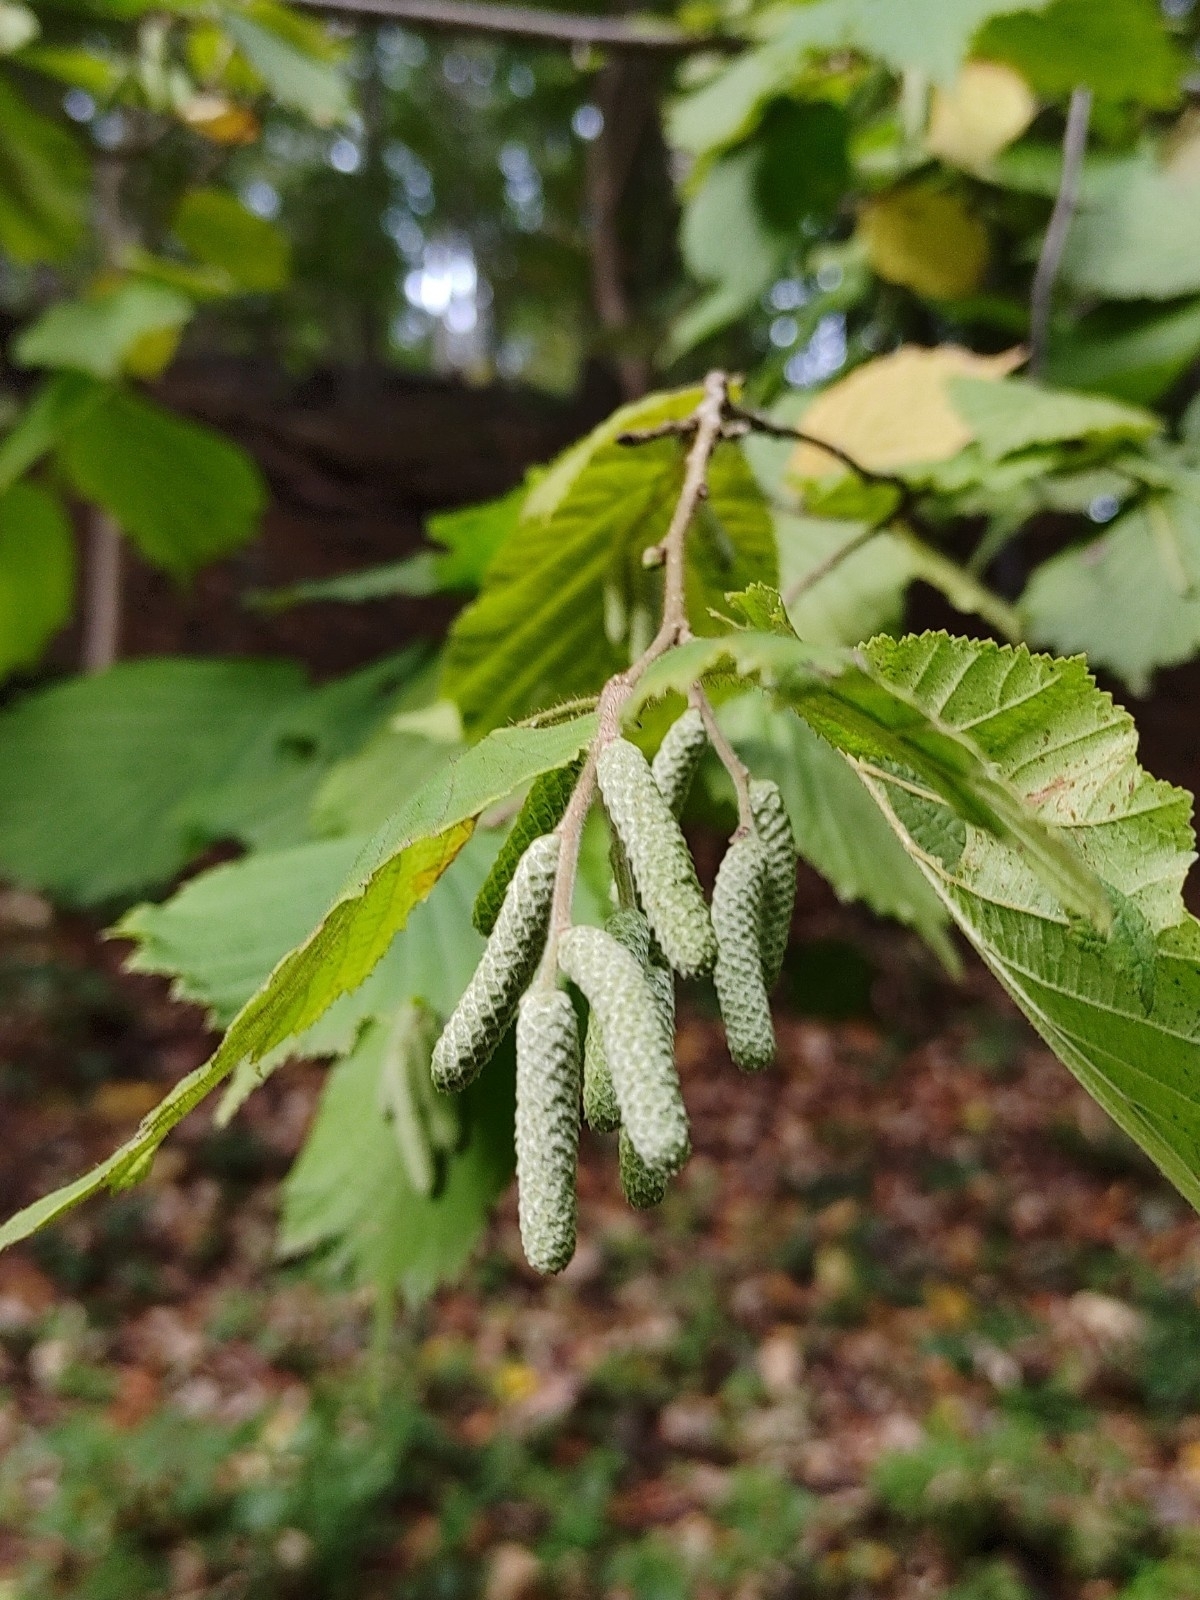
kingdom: Plantae
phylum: Tracheophyta
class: Magnoliopsida
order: Fagales
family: Betulaceae
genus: Corylus
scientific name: Corylus avellana
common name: European hazel
